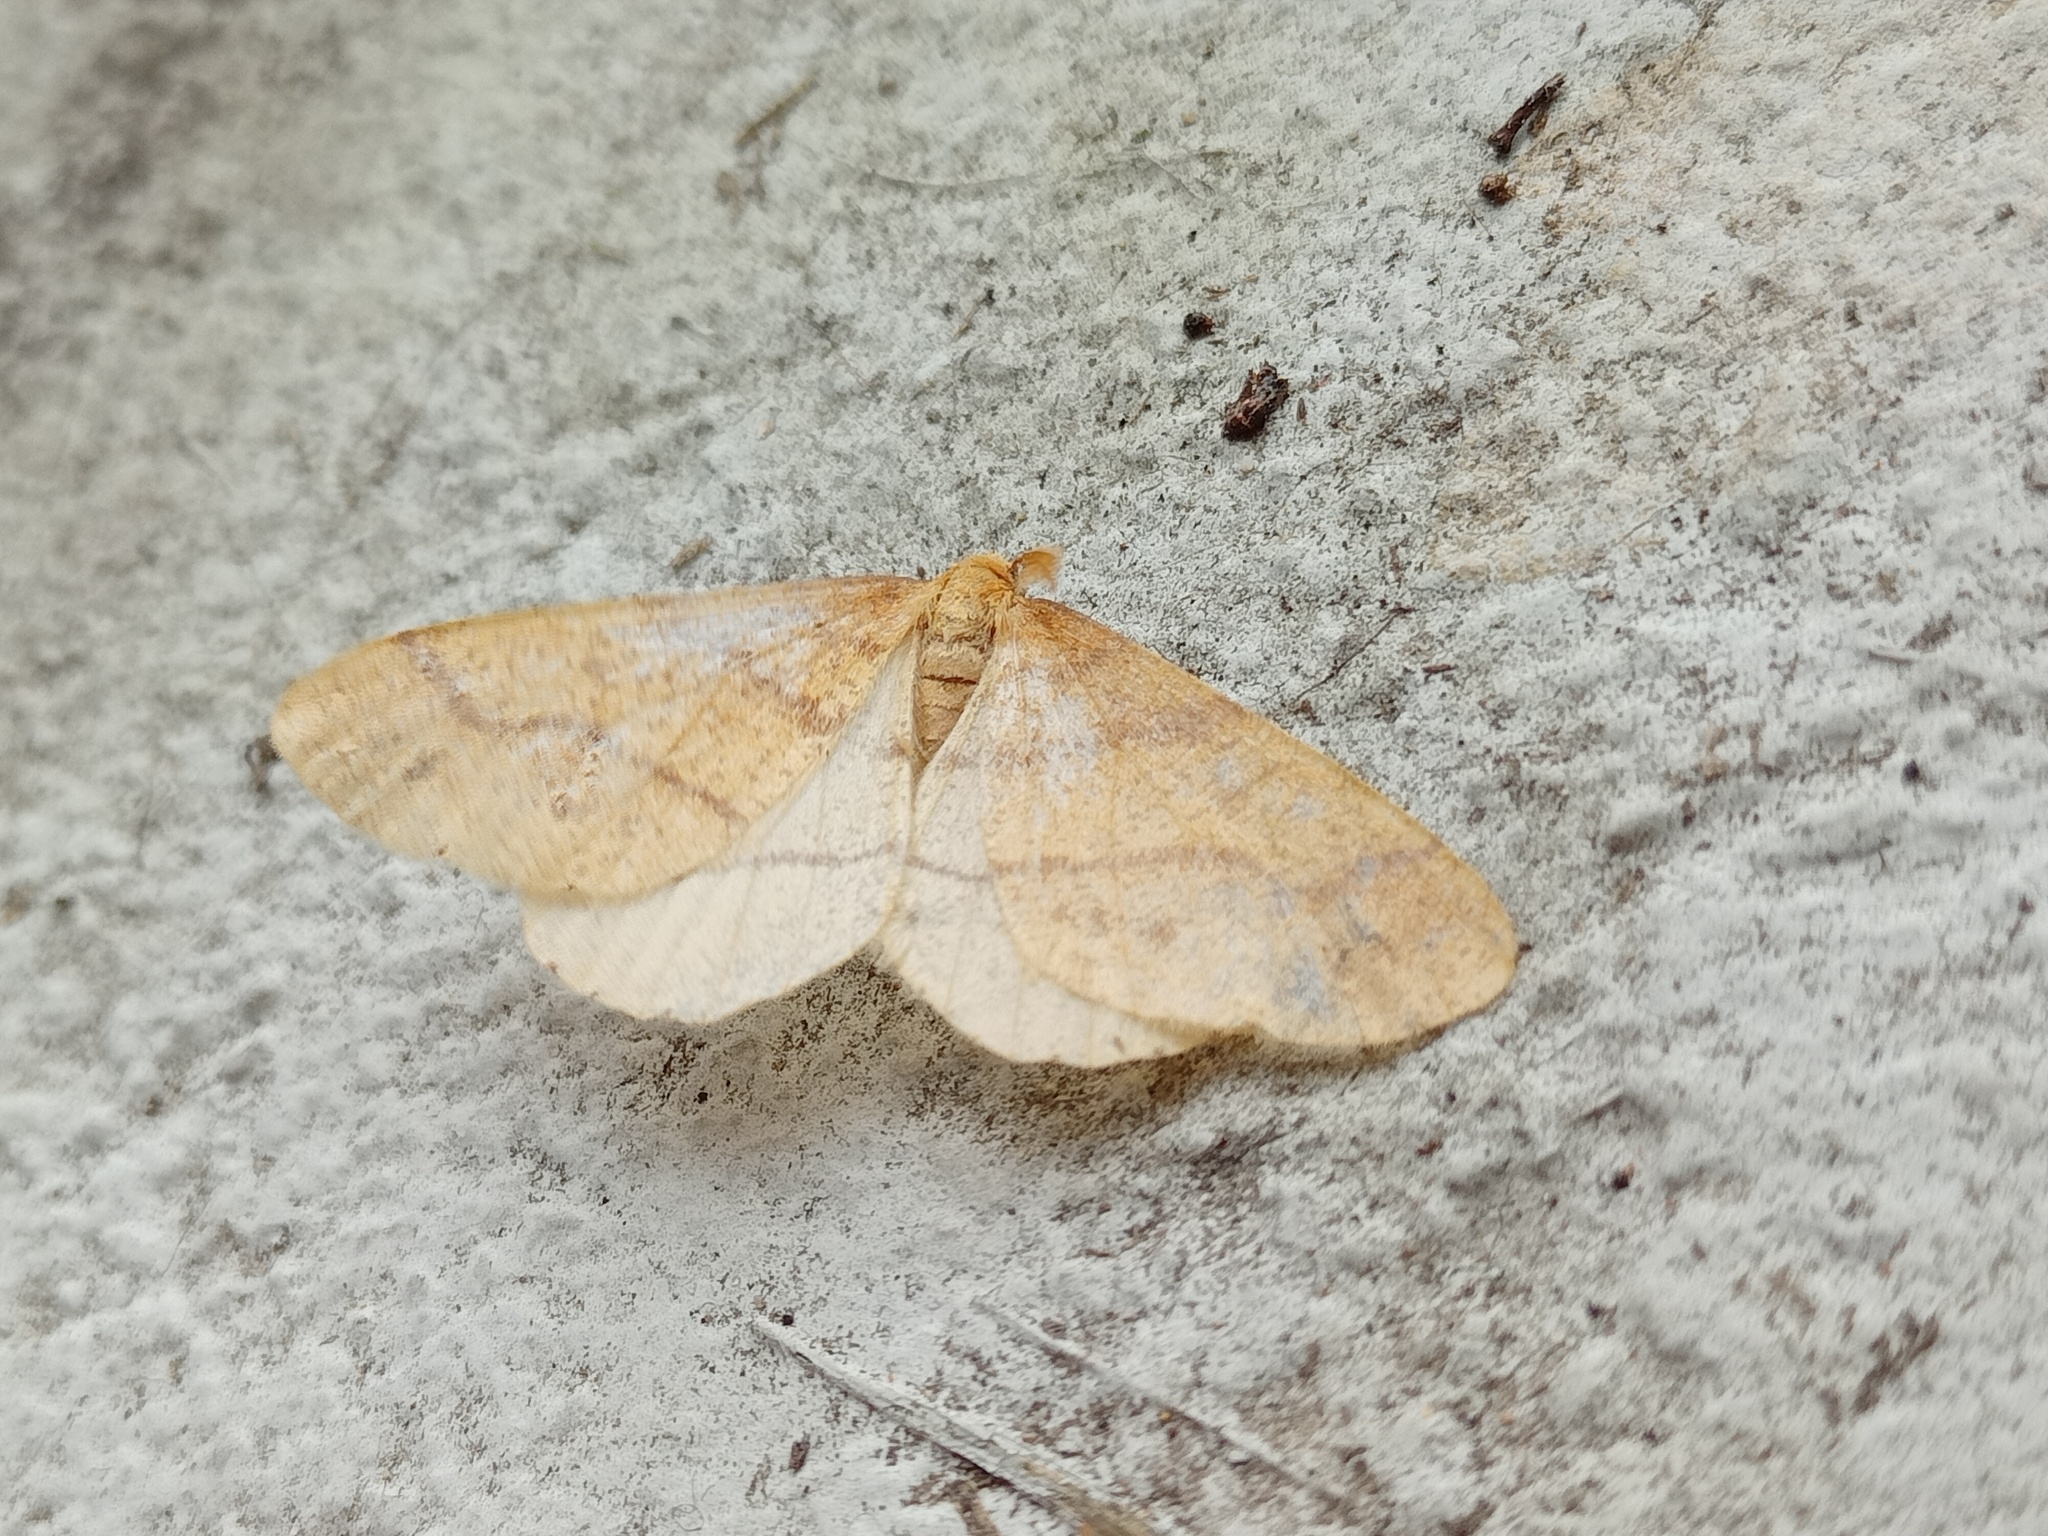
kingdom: Animalia
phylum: Arthropoda
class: Insecta
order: Lepidoptera
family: Geometridae
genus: Agriopis
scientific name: Agriopis aurantiaria
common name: Scarce umber
